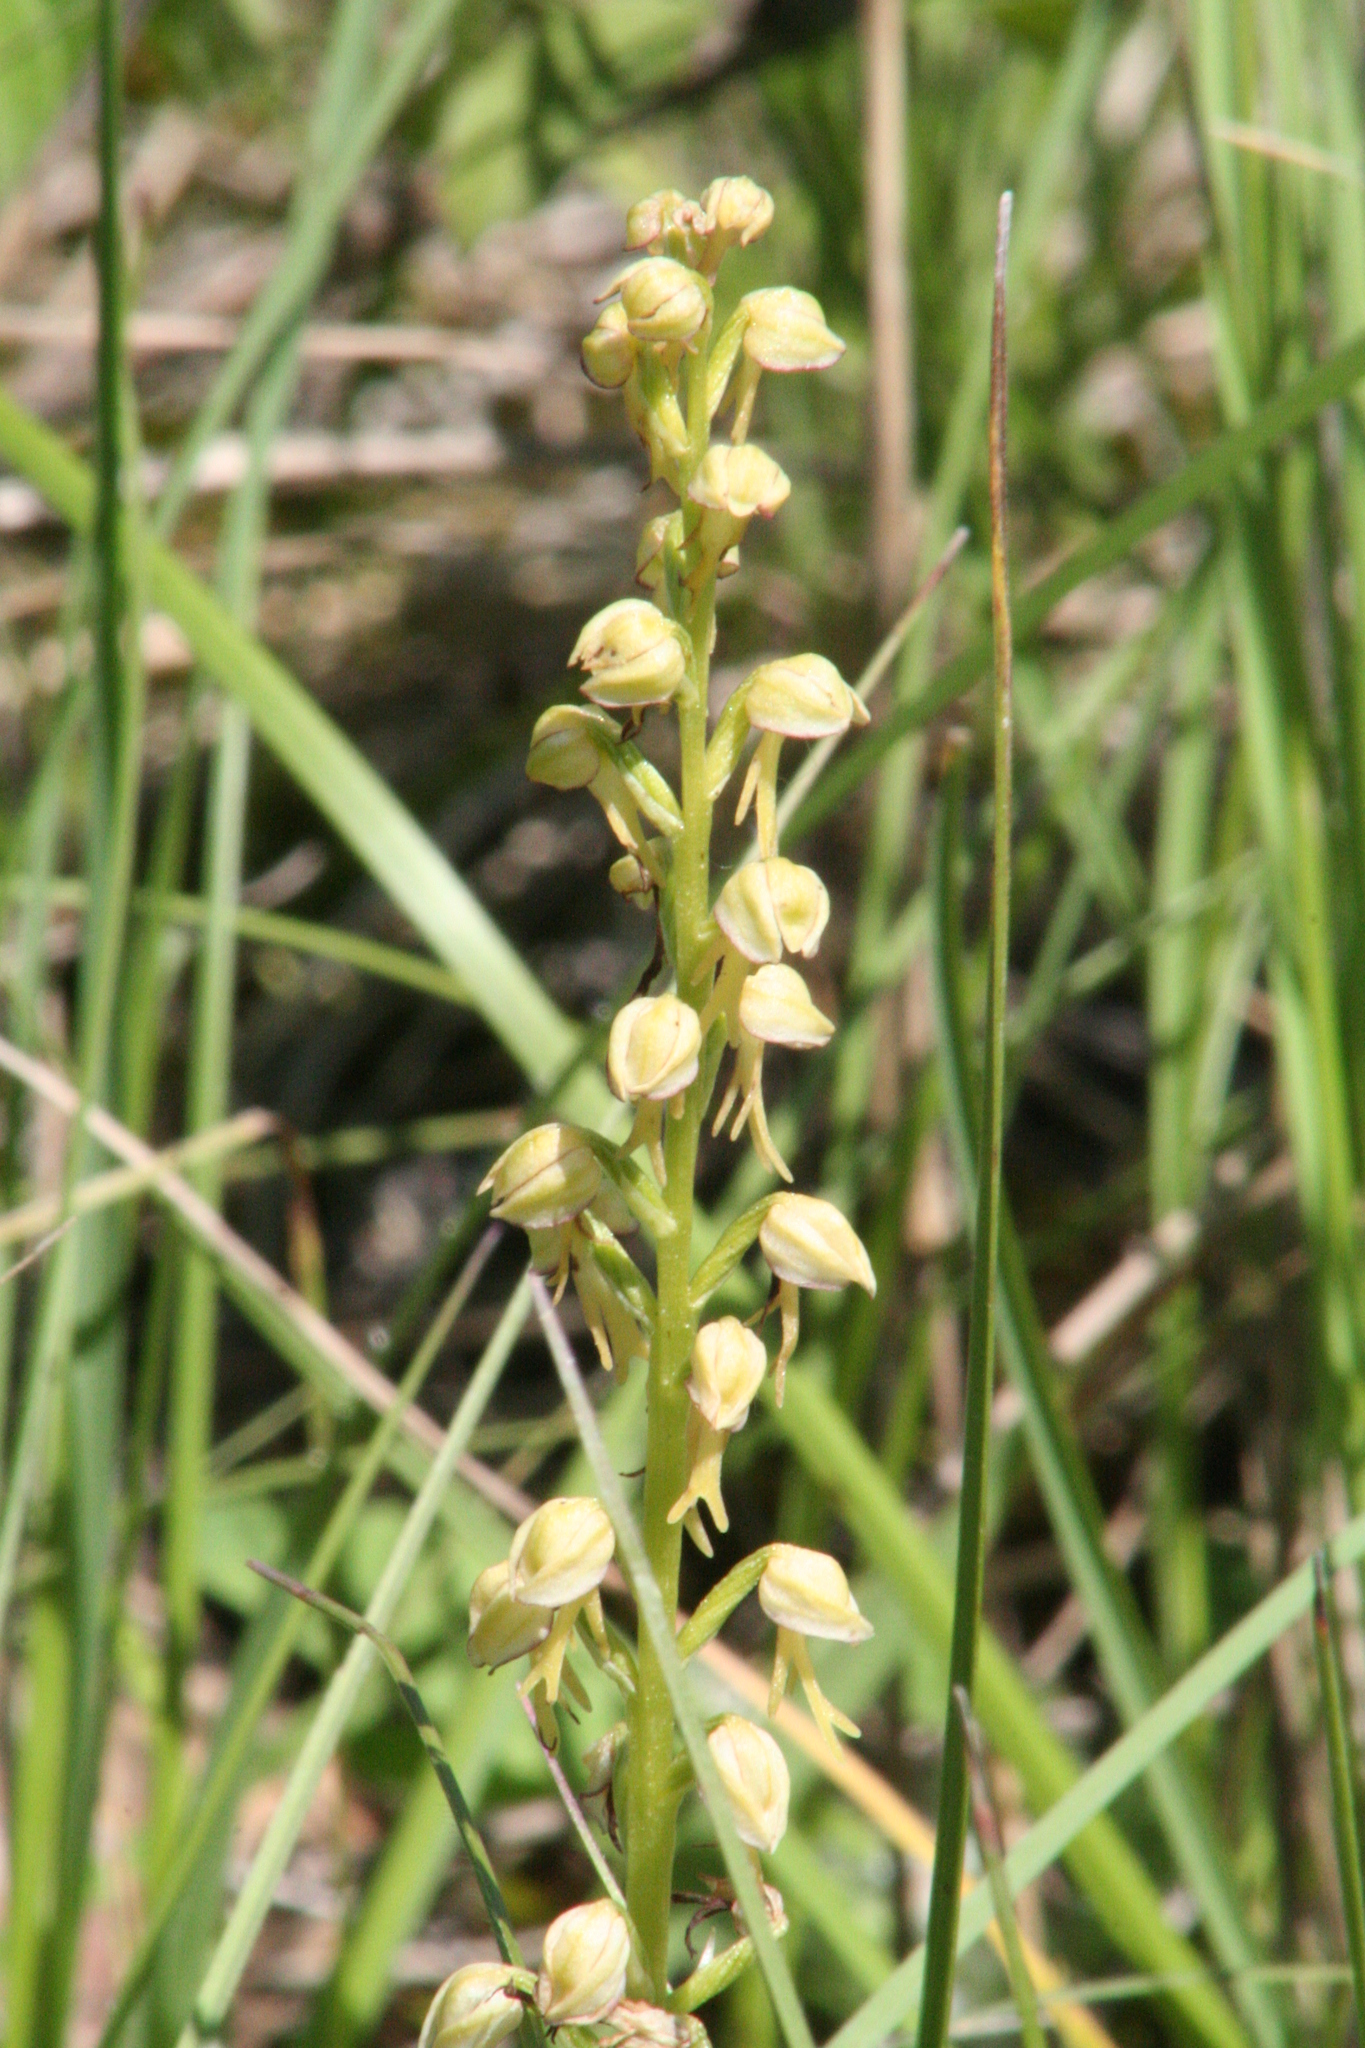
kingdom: Plantae
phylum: Tracheophyta
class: Liliopsida
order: Asparagales
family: Orchidaceae
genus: Orchis
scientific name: Orchis anthropophora
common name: Man orchid
